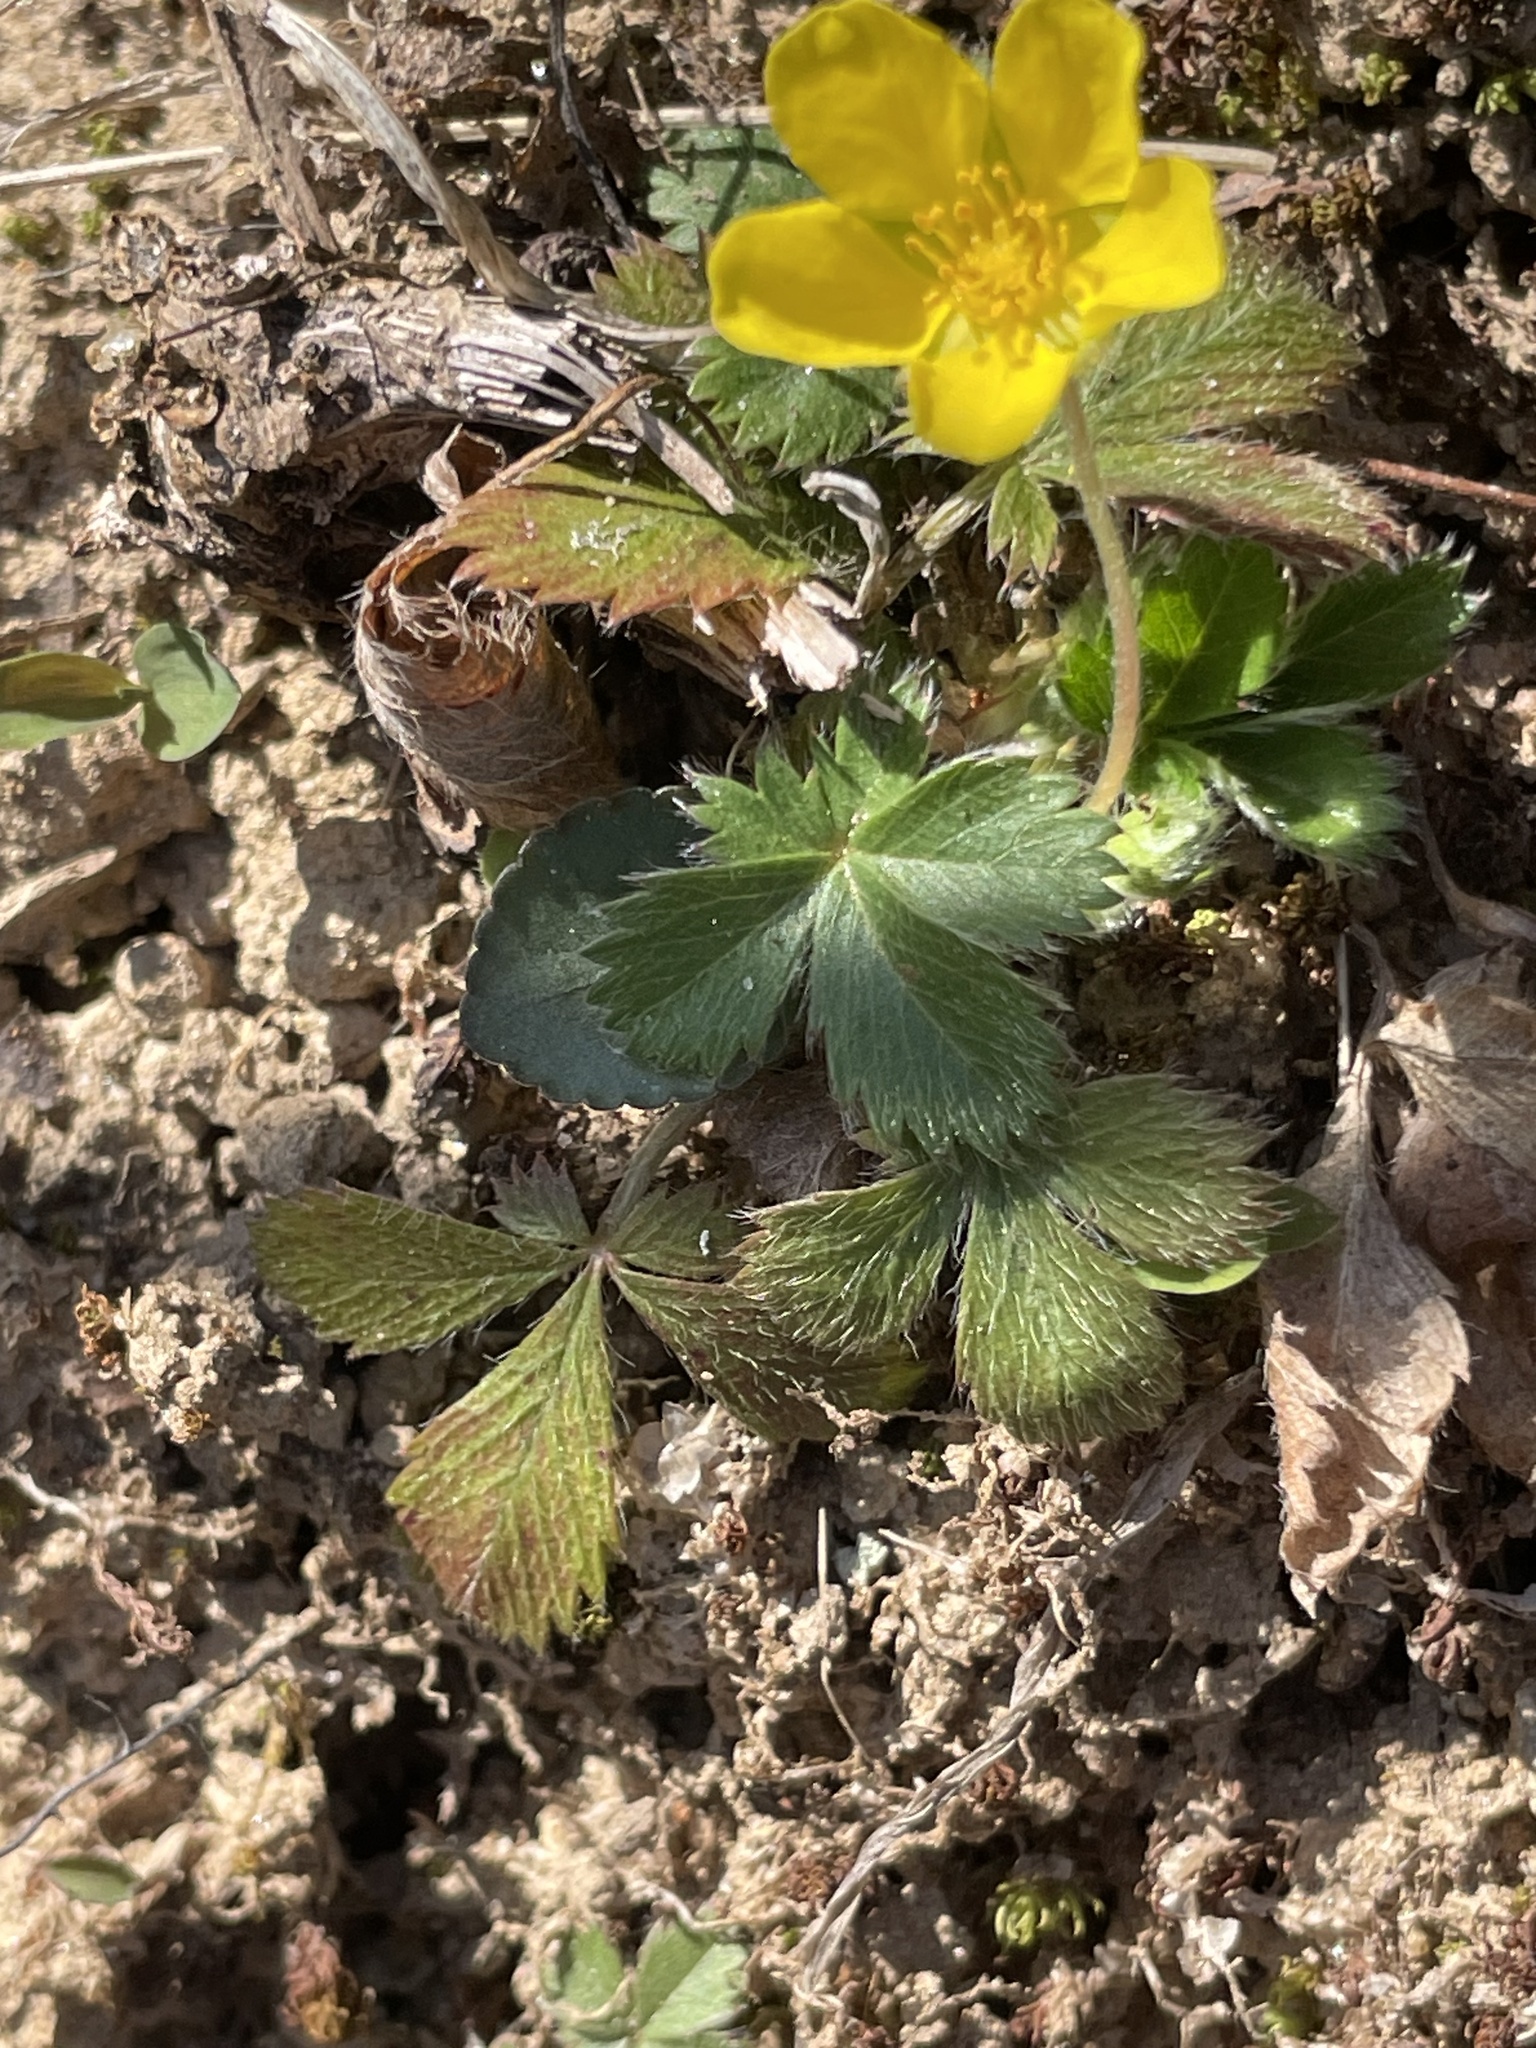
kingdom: Plantae
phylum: Tracheophyta
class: Magnoliopsida
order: Rosales
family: Rosaceae
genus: Potentilla
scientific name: Potentilla canadensis
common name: Canada cinquefoil
